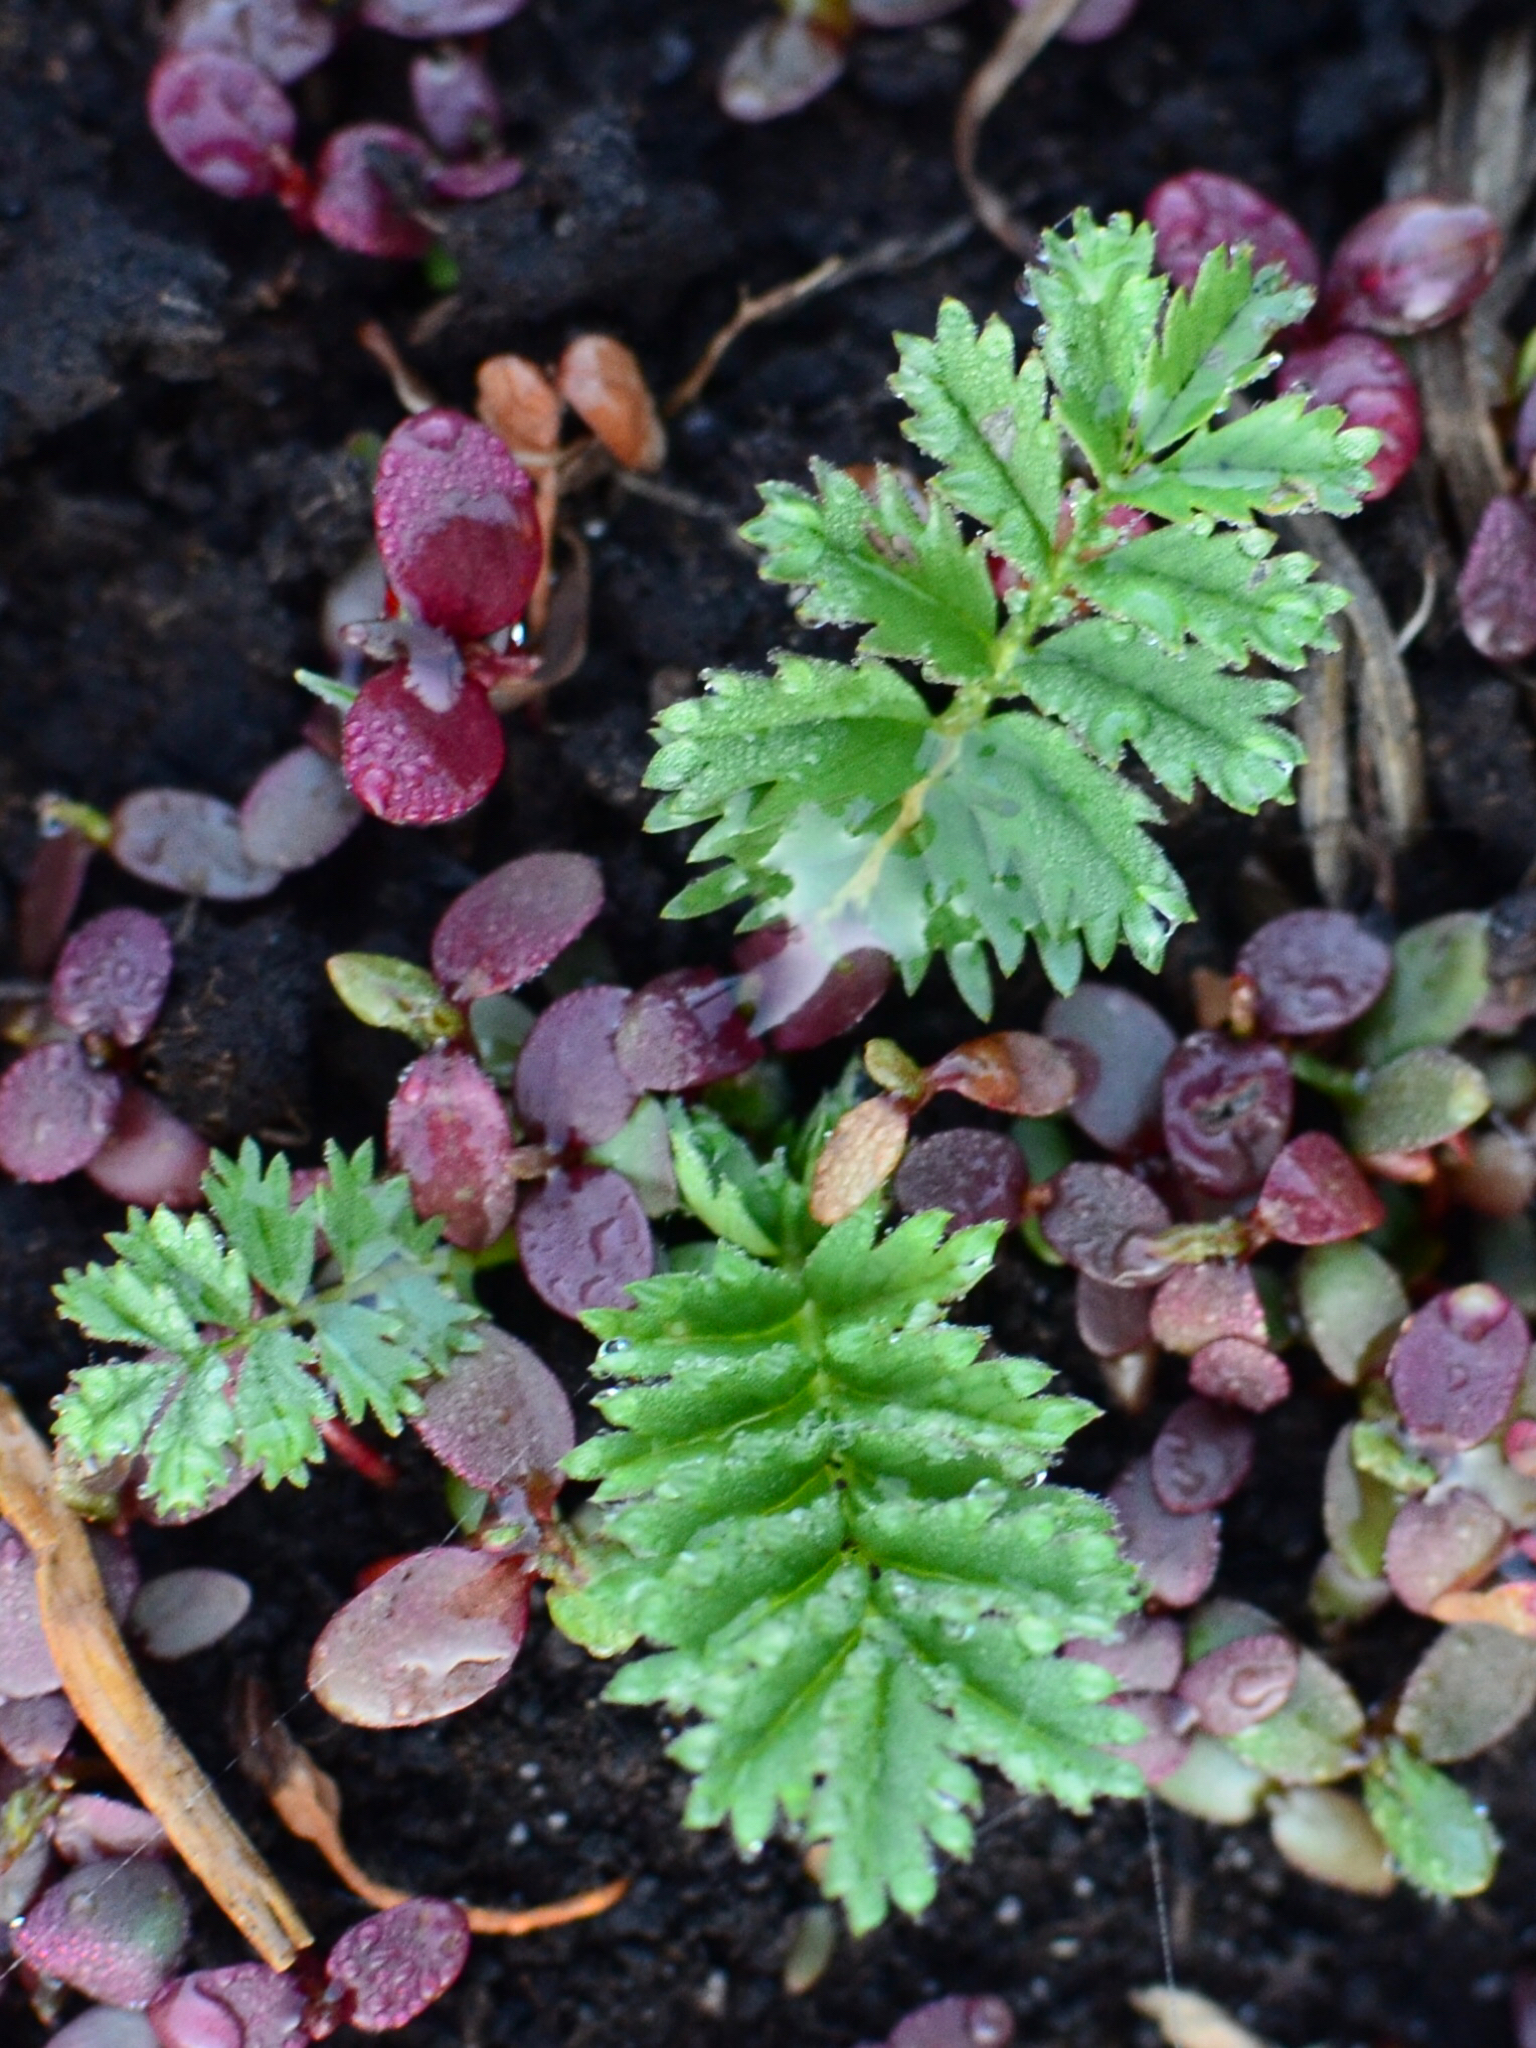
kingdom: Plantae
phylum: Tracheophyta
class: Magnoliopsida
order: Rosales
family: Rosaceae
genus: Argentina
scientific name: Argentina anserina
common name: Common silverweed
